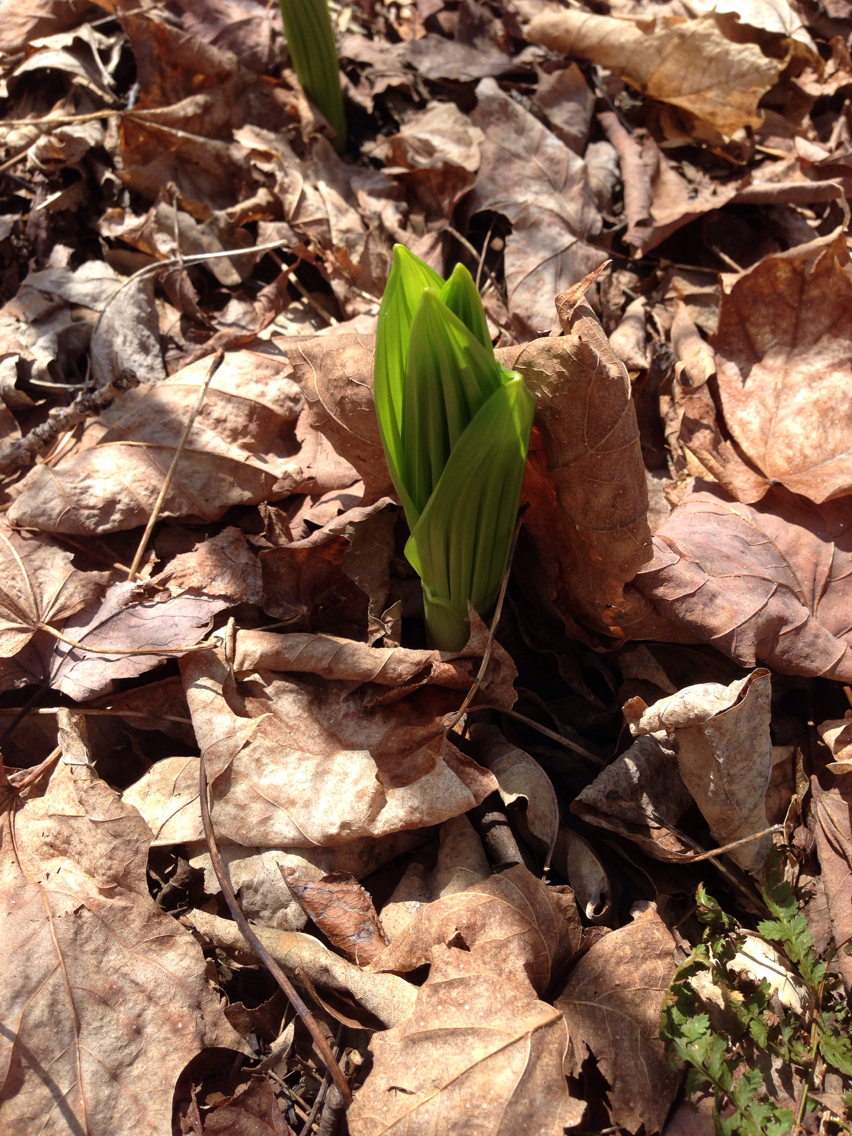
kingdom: Plantae
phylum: Tracheophyta
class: Liliopsida
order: Liliales
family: Melanthiaceae
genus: Veratrum
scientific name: Veratrum viride
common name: American false hellebore
